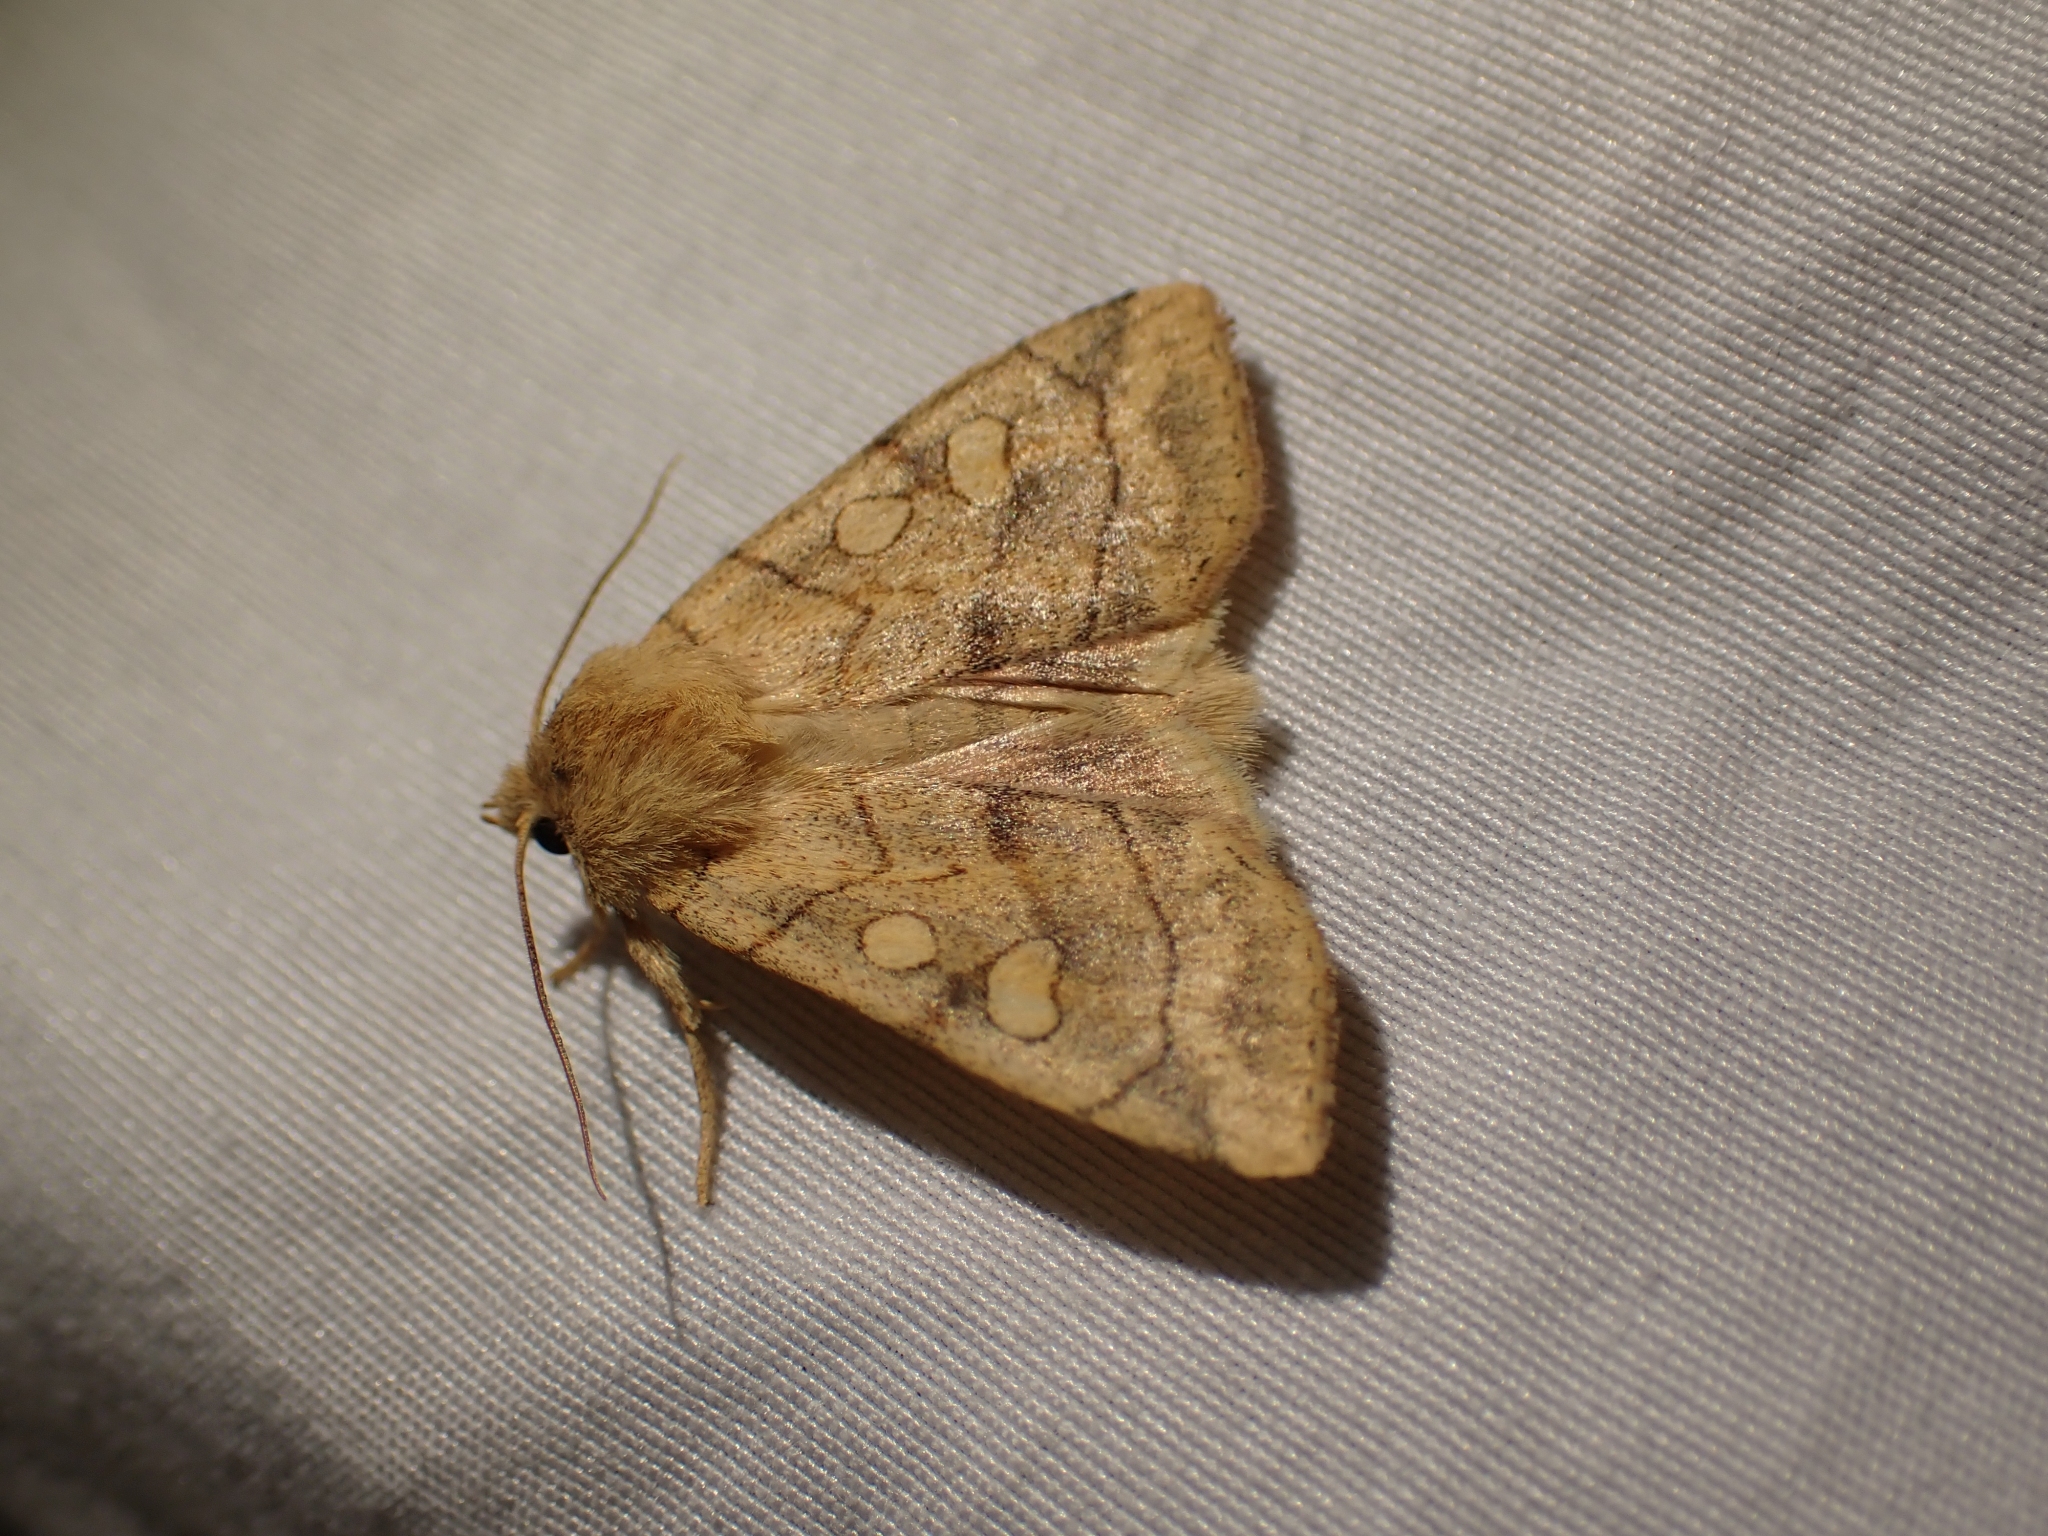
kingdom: Animalia
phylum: Arthropoda
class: Insecta
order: Lepidoptera
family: Noctuidae
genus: Enargia
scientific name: Enargia decolor
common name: Aspen twoleaf tier moth
